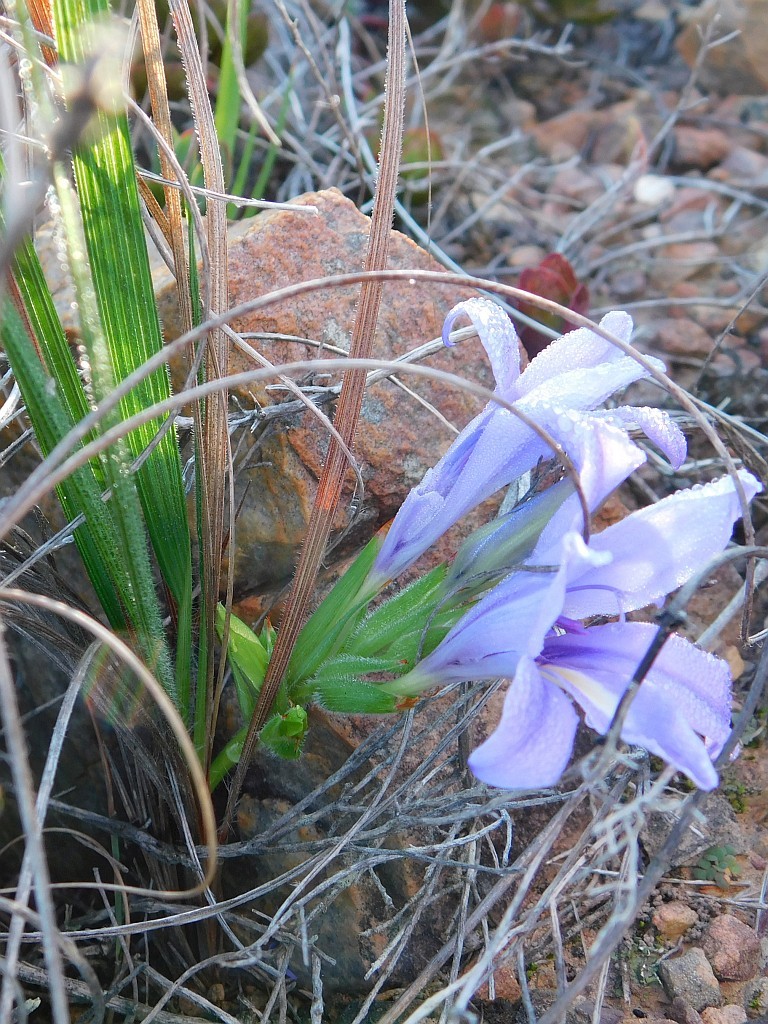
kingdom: Plantae
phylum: Tracheophyta
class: Liliopsida
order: Asparagales
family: Iridaceae
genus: Babiana
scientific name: Babiana ambigua
